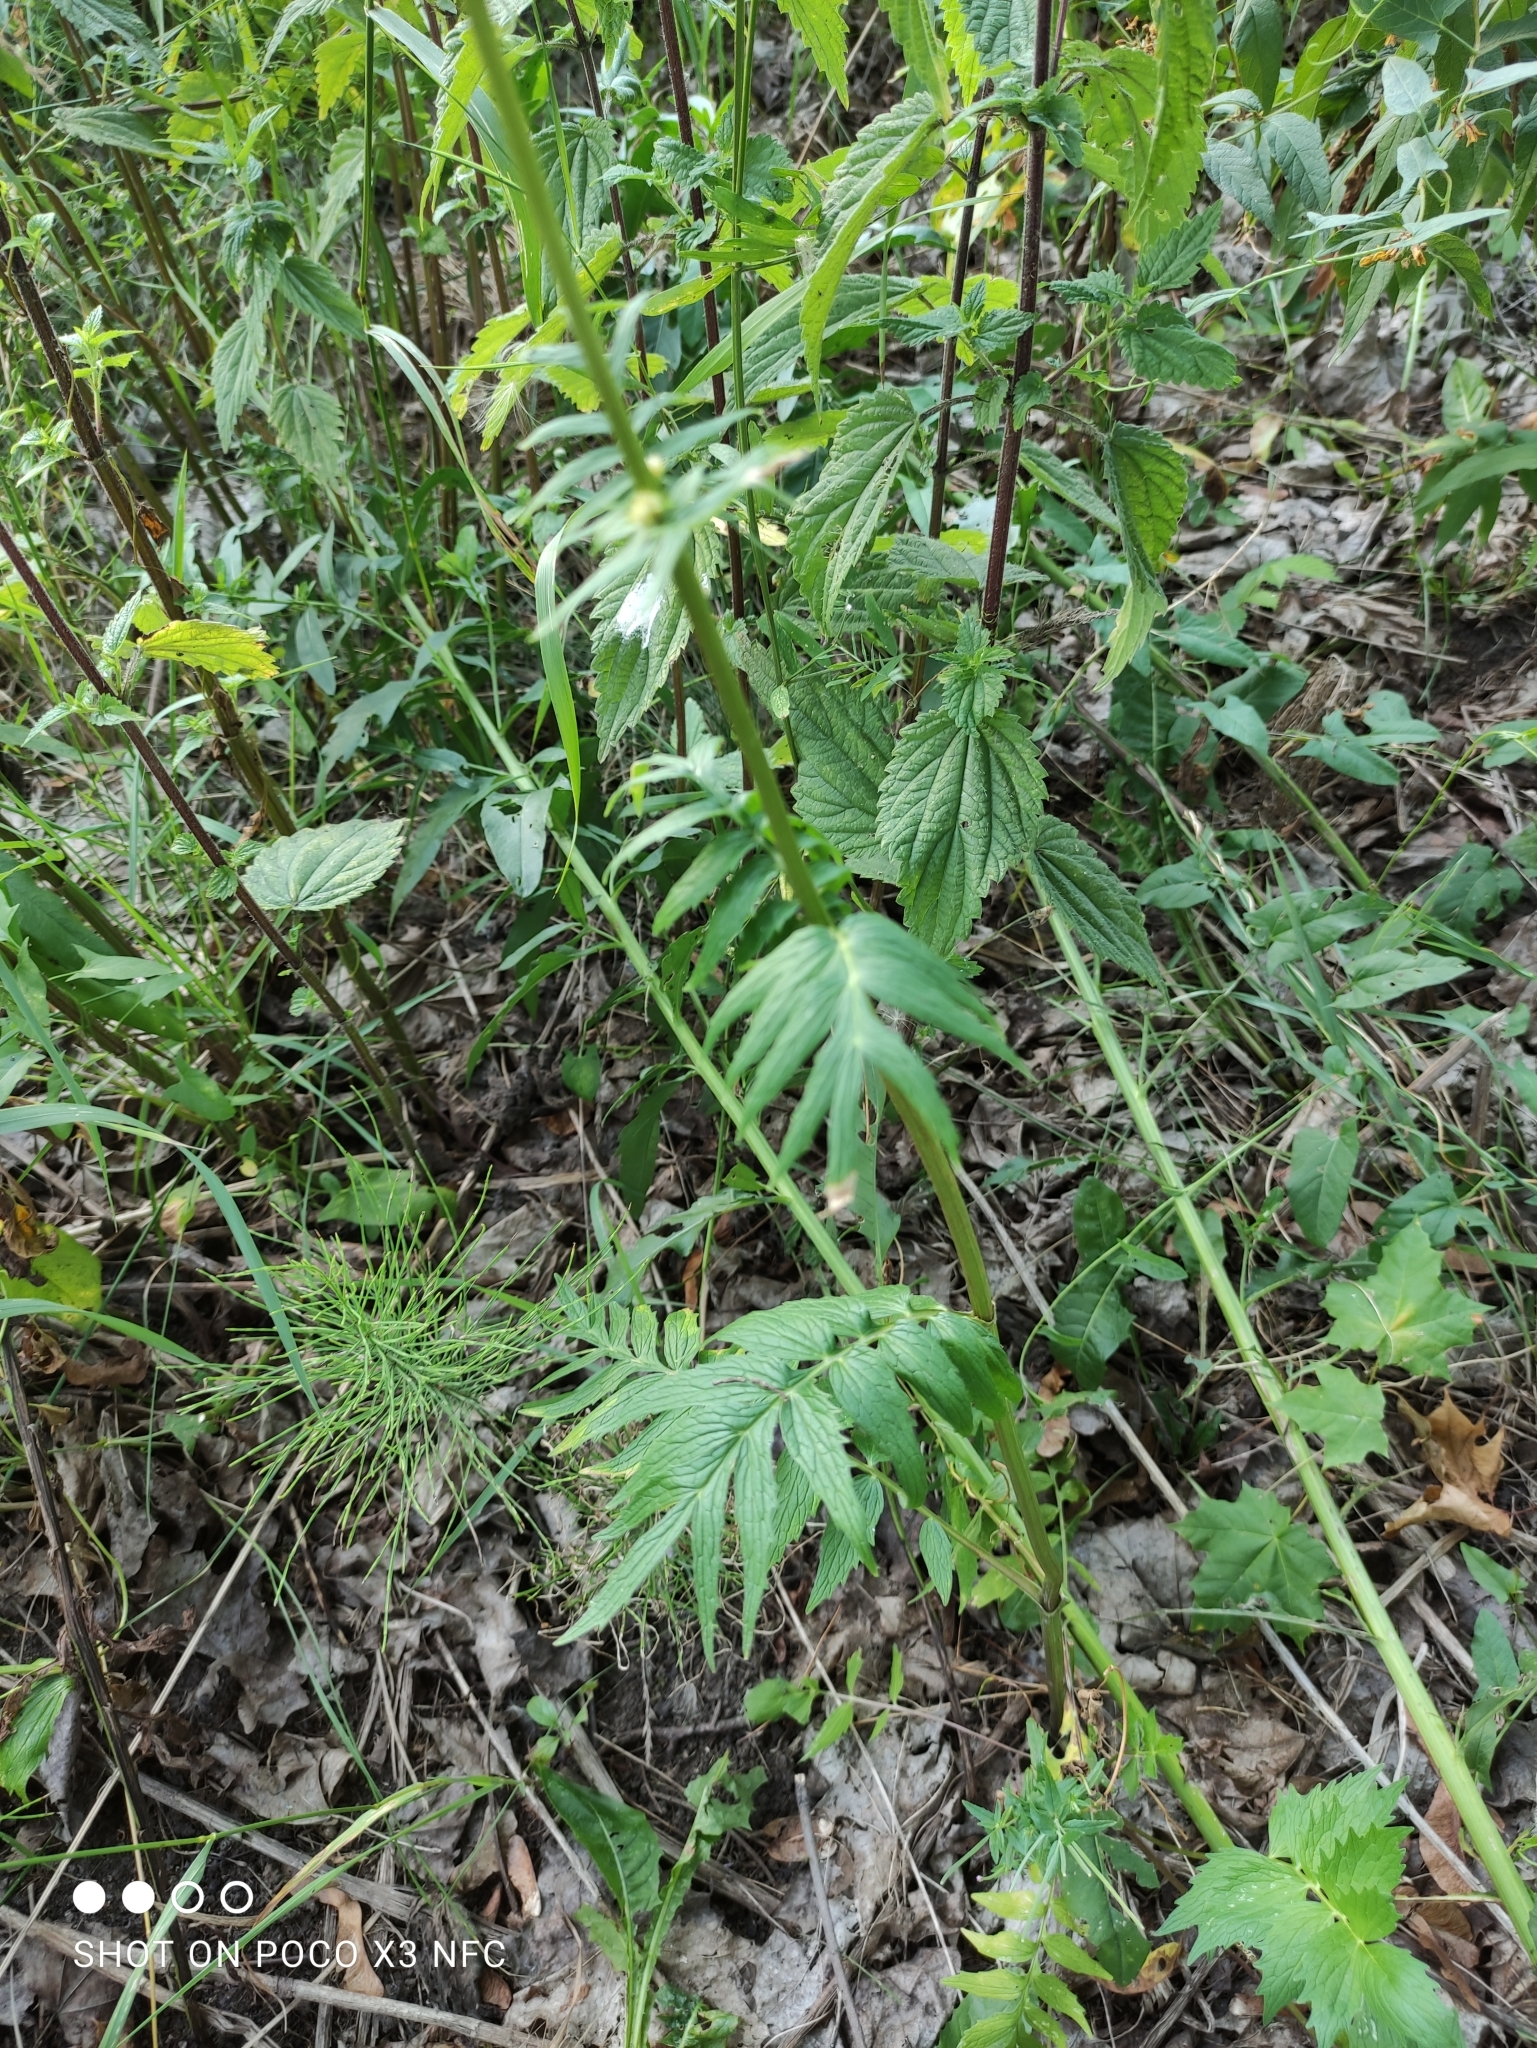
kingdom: Plantae
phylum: Tracheophyta
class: Magnoliopsida
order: Dipsacales
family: Caprifoliaceae
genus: Valeriana
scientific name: Valeriana officinalis
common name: Common valerian
